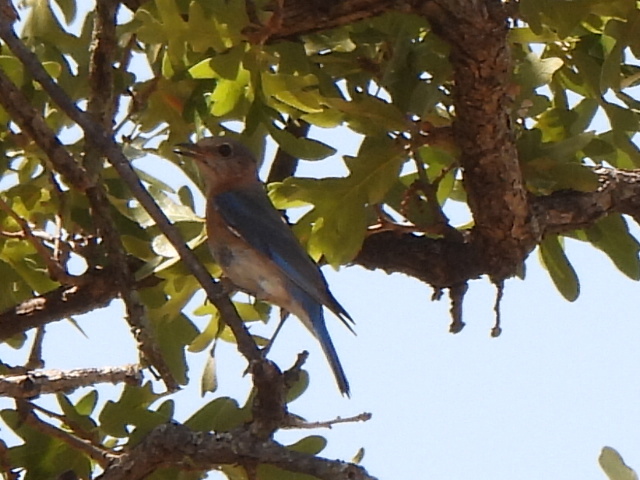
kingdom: Animalia
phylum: Chordata
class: Aves
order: Passeriformes
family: Turdidae
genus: Sialia
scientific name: Sialia sialis
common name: Eastern bluebird
